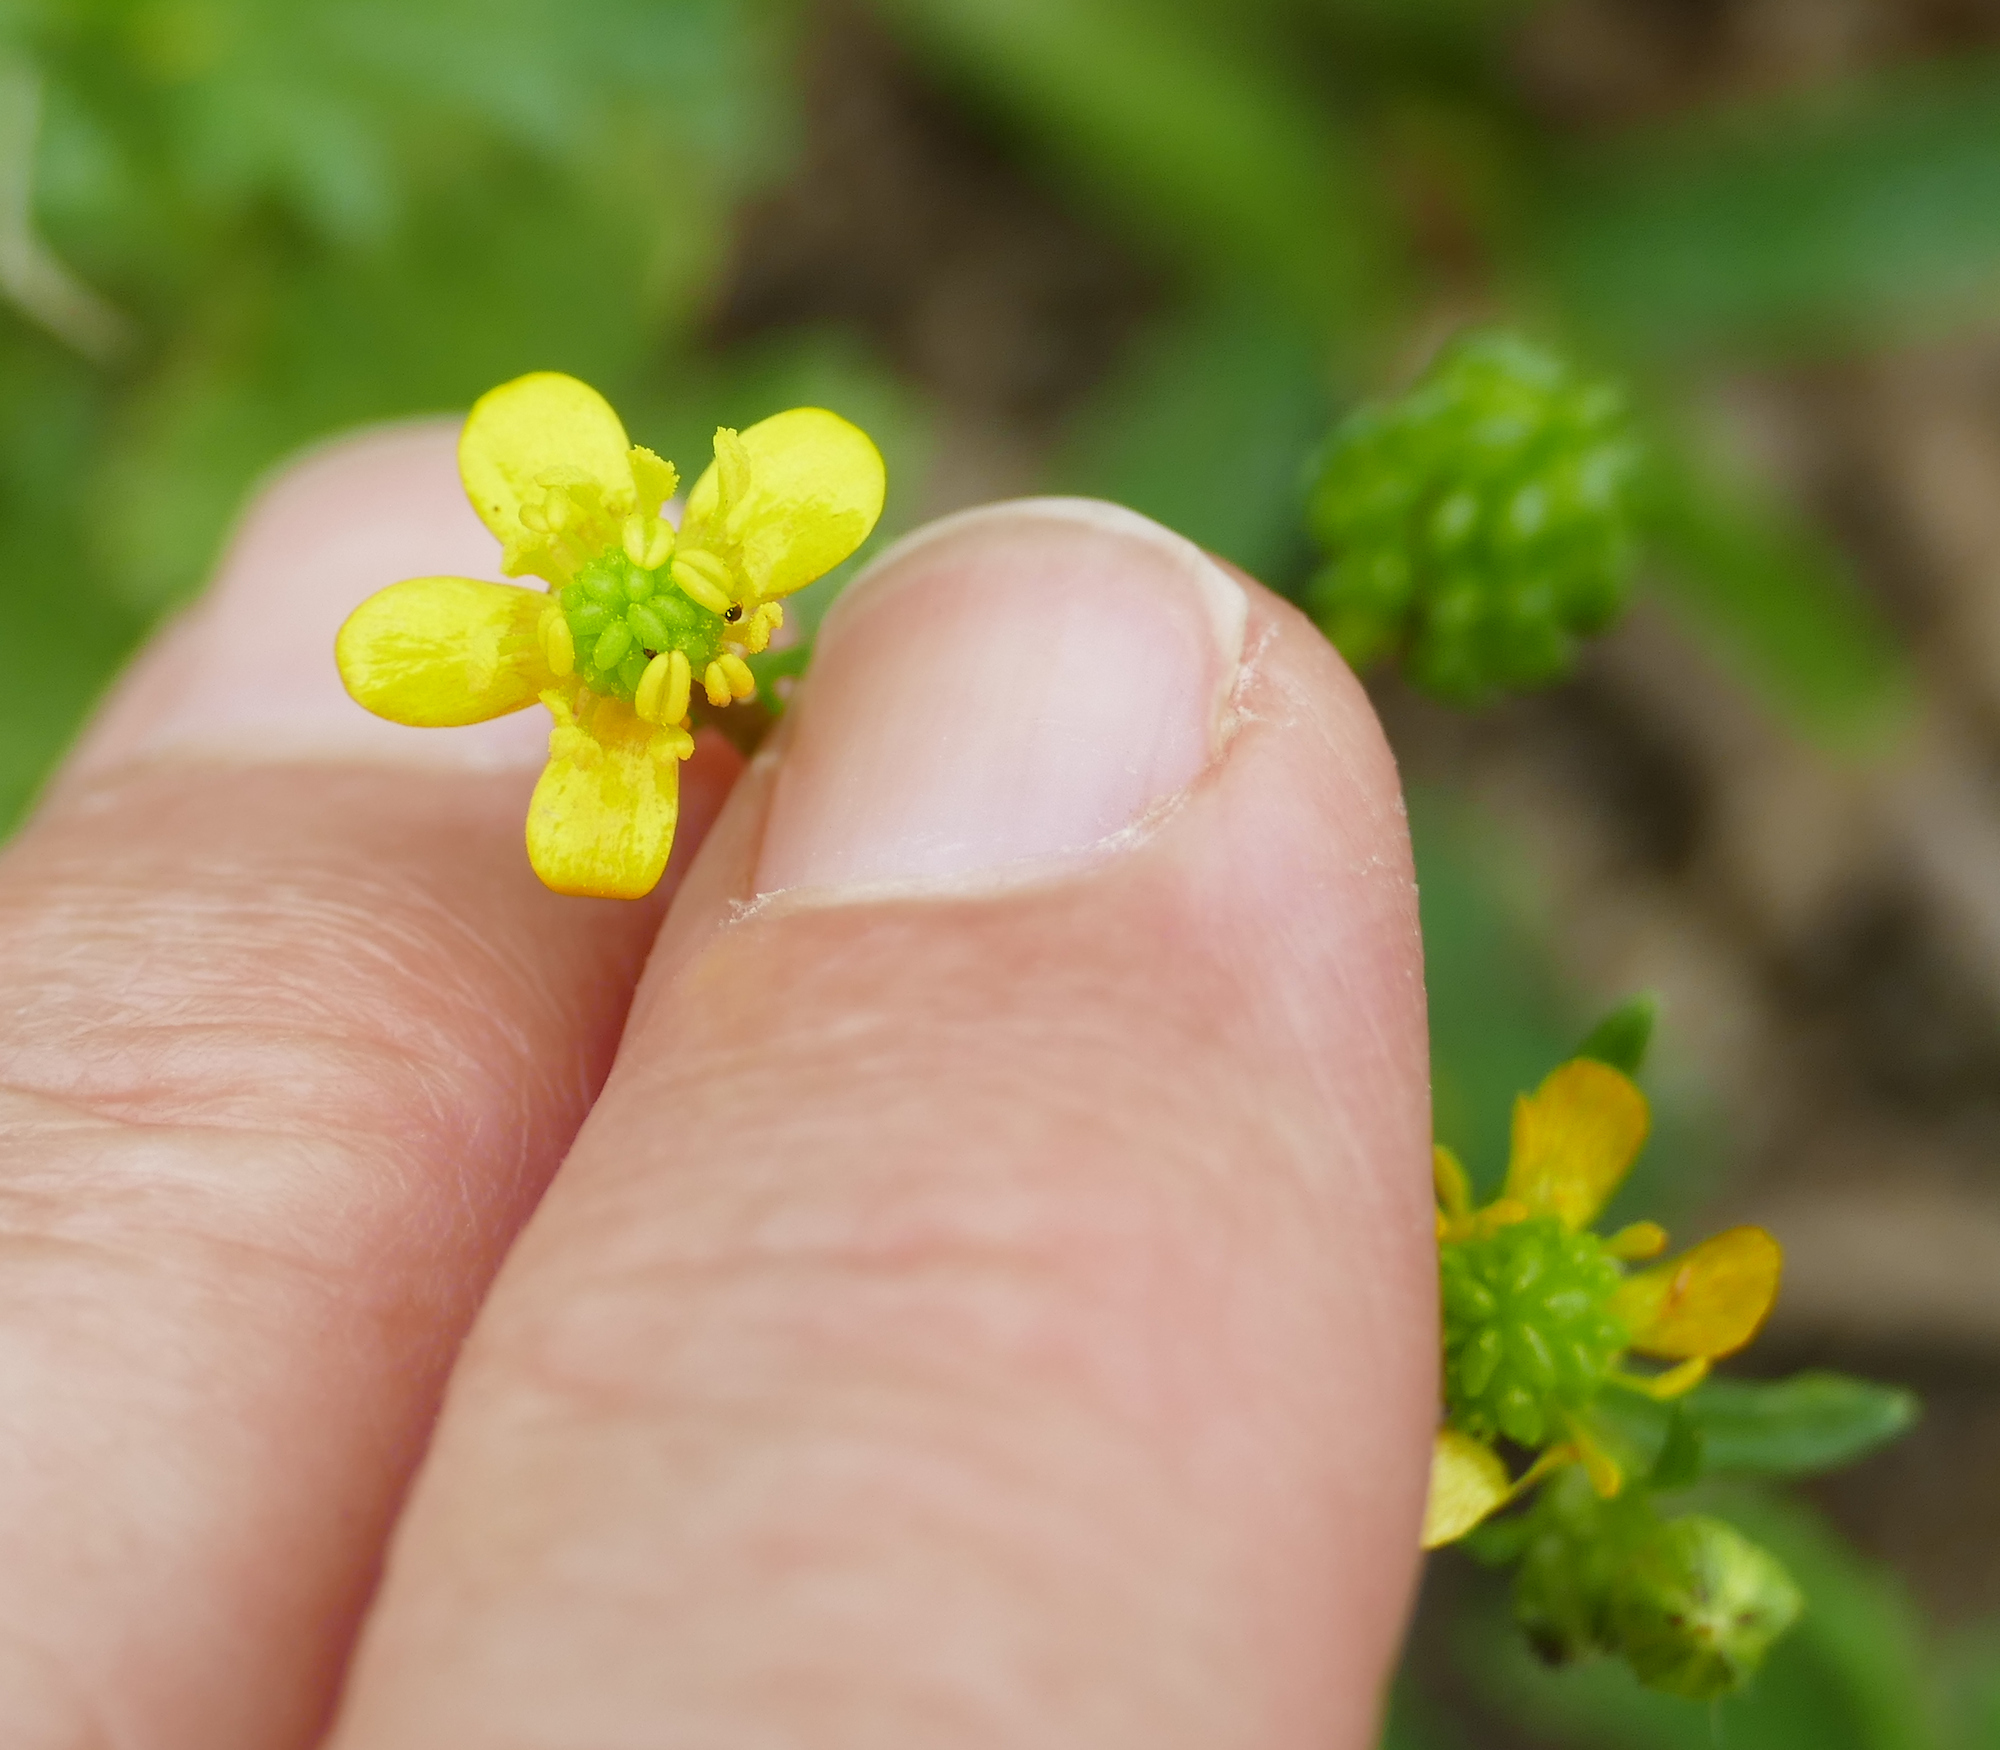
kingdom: Plantae
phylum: Tracheophyta
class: Magnoliopsida
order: Ranunculales
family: Ranunculaceae
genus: Ranunculus
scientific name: Ranunculus sardous
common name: Hairy buttercup
